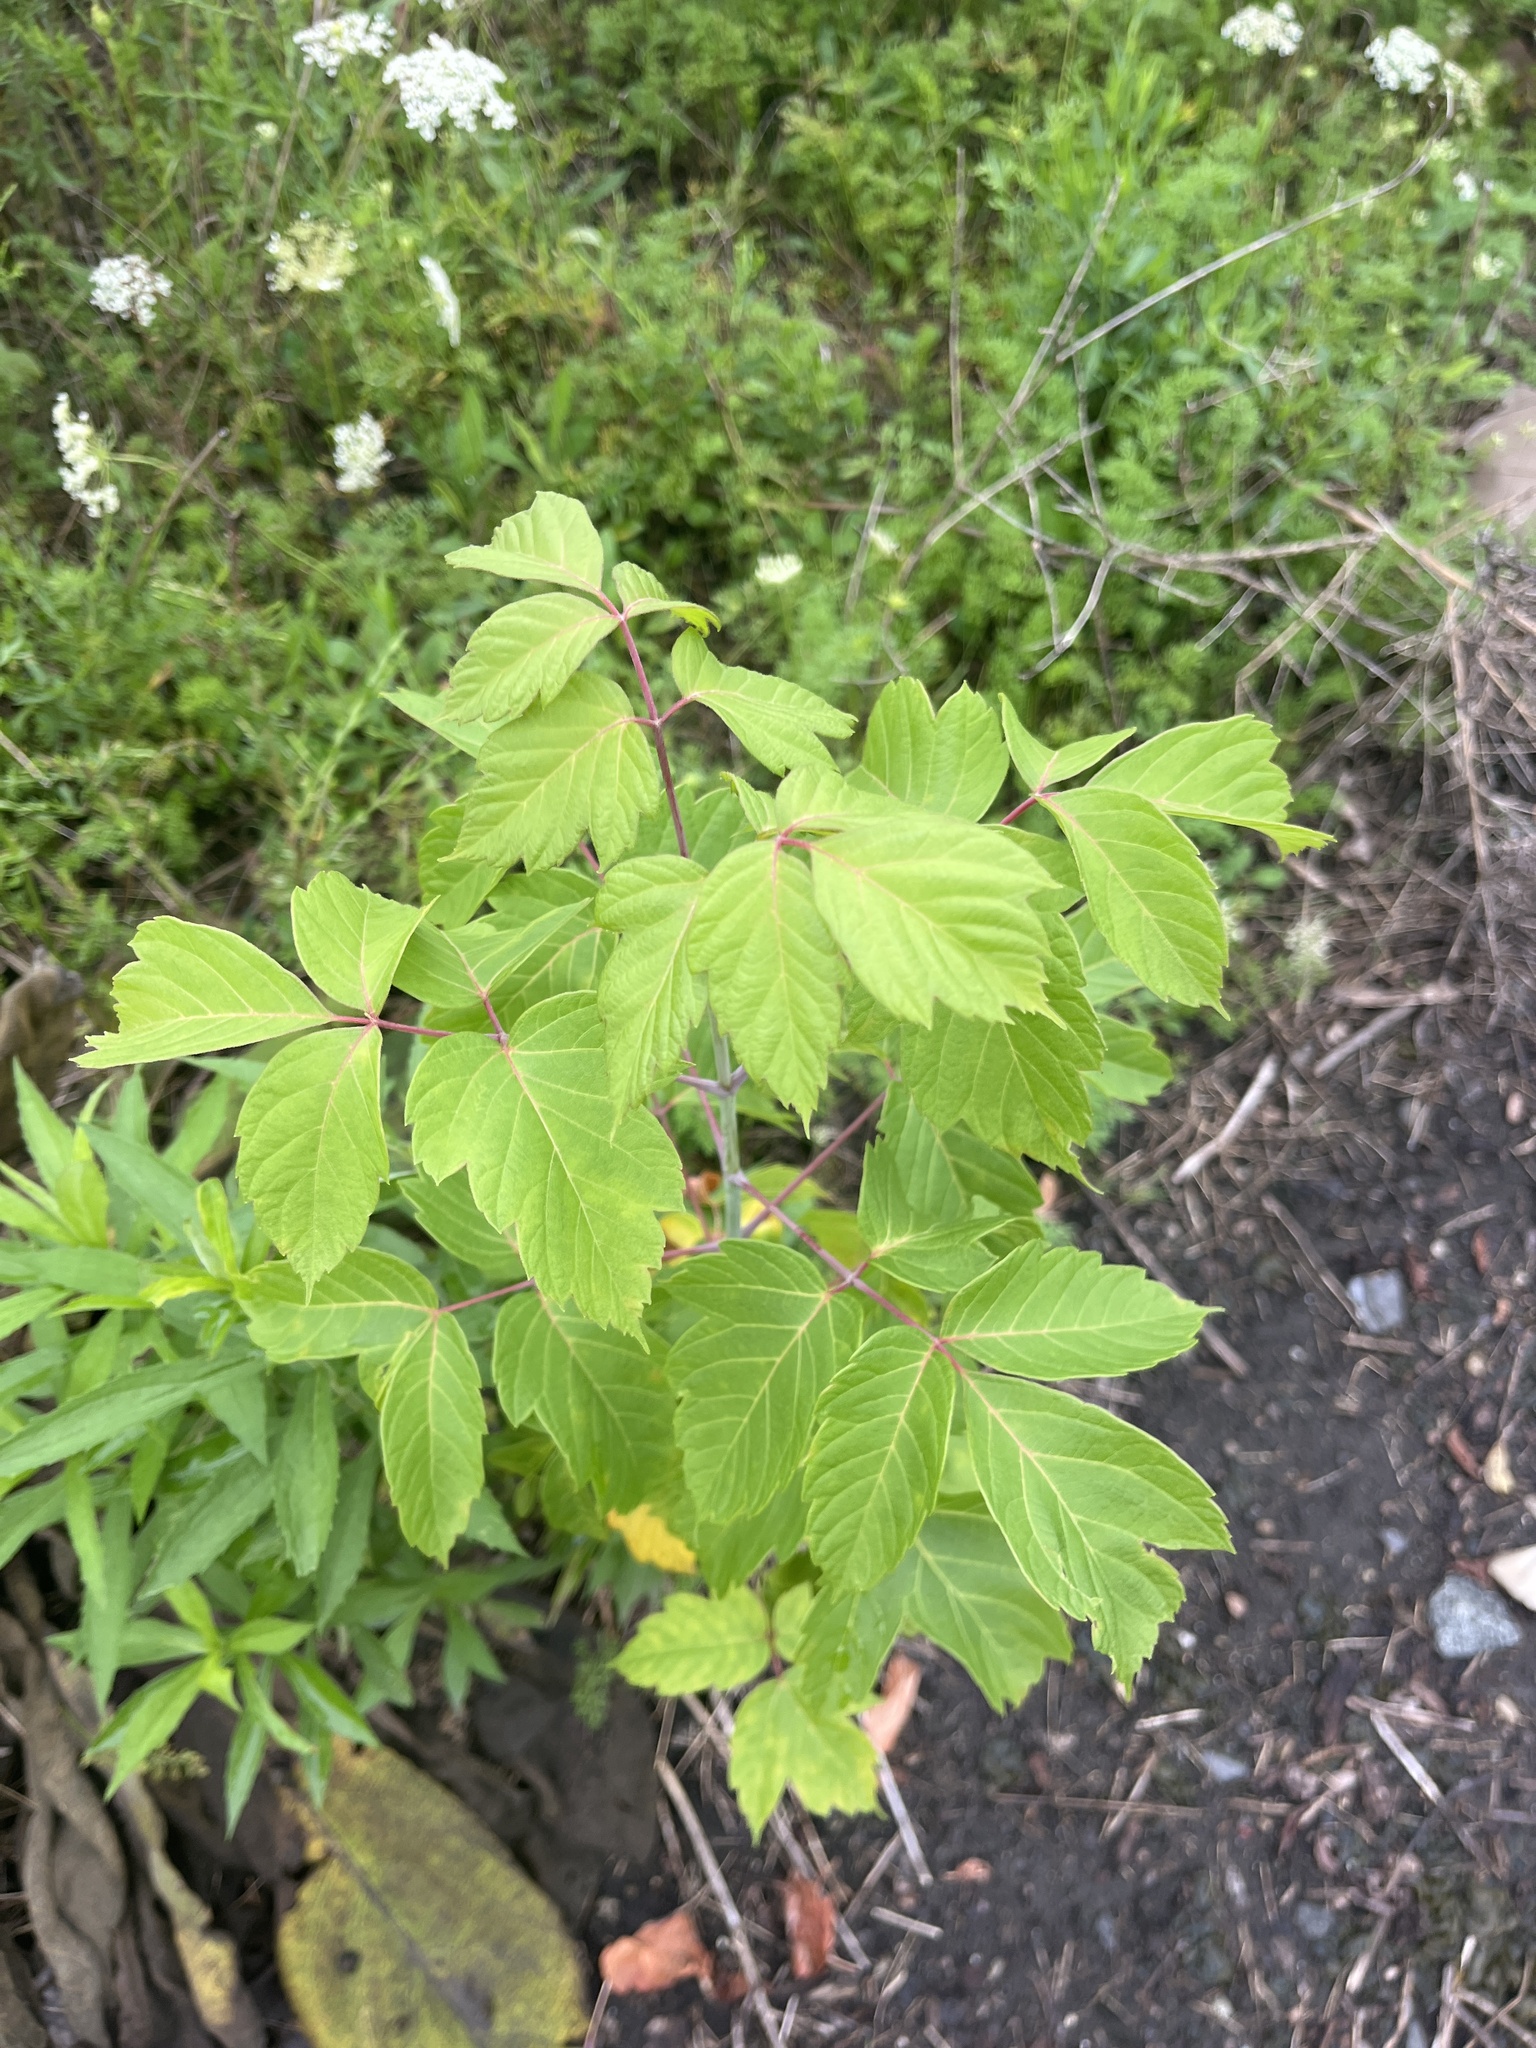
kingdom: Plantae
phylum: Tracheophyta
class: Magnoliopsida
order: Sapindales
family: Sapindaceae
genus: Acer
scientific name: Acer negundo
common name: Ashleaf maple
